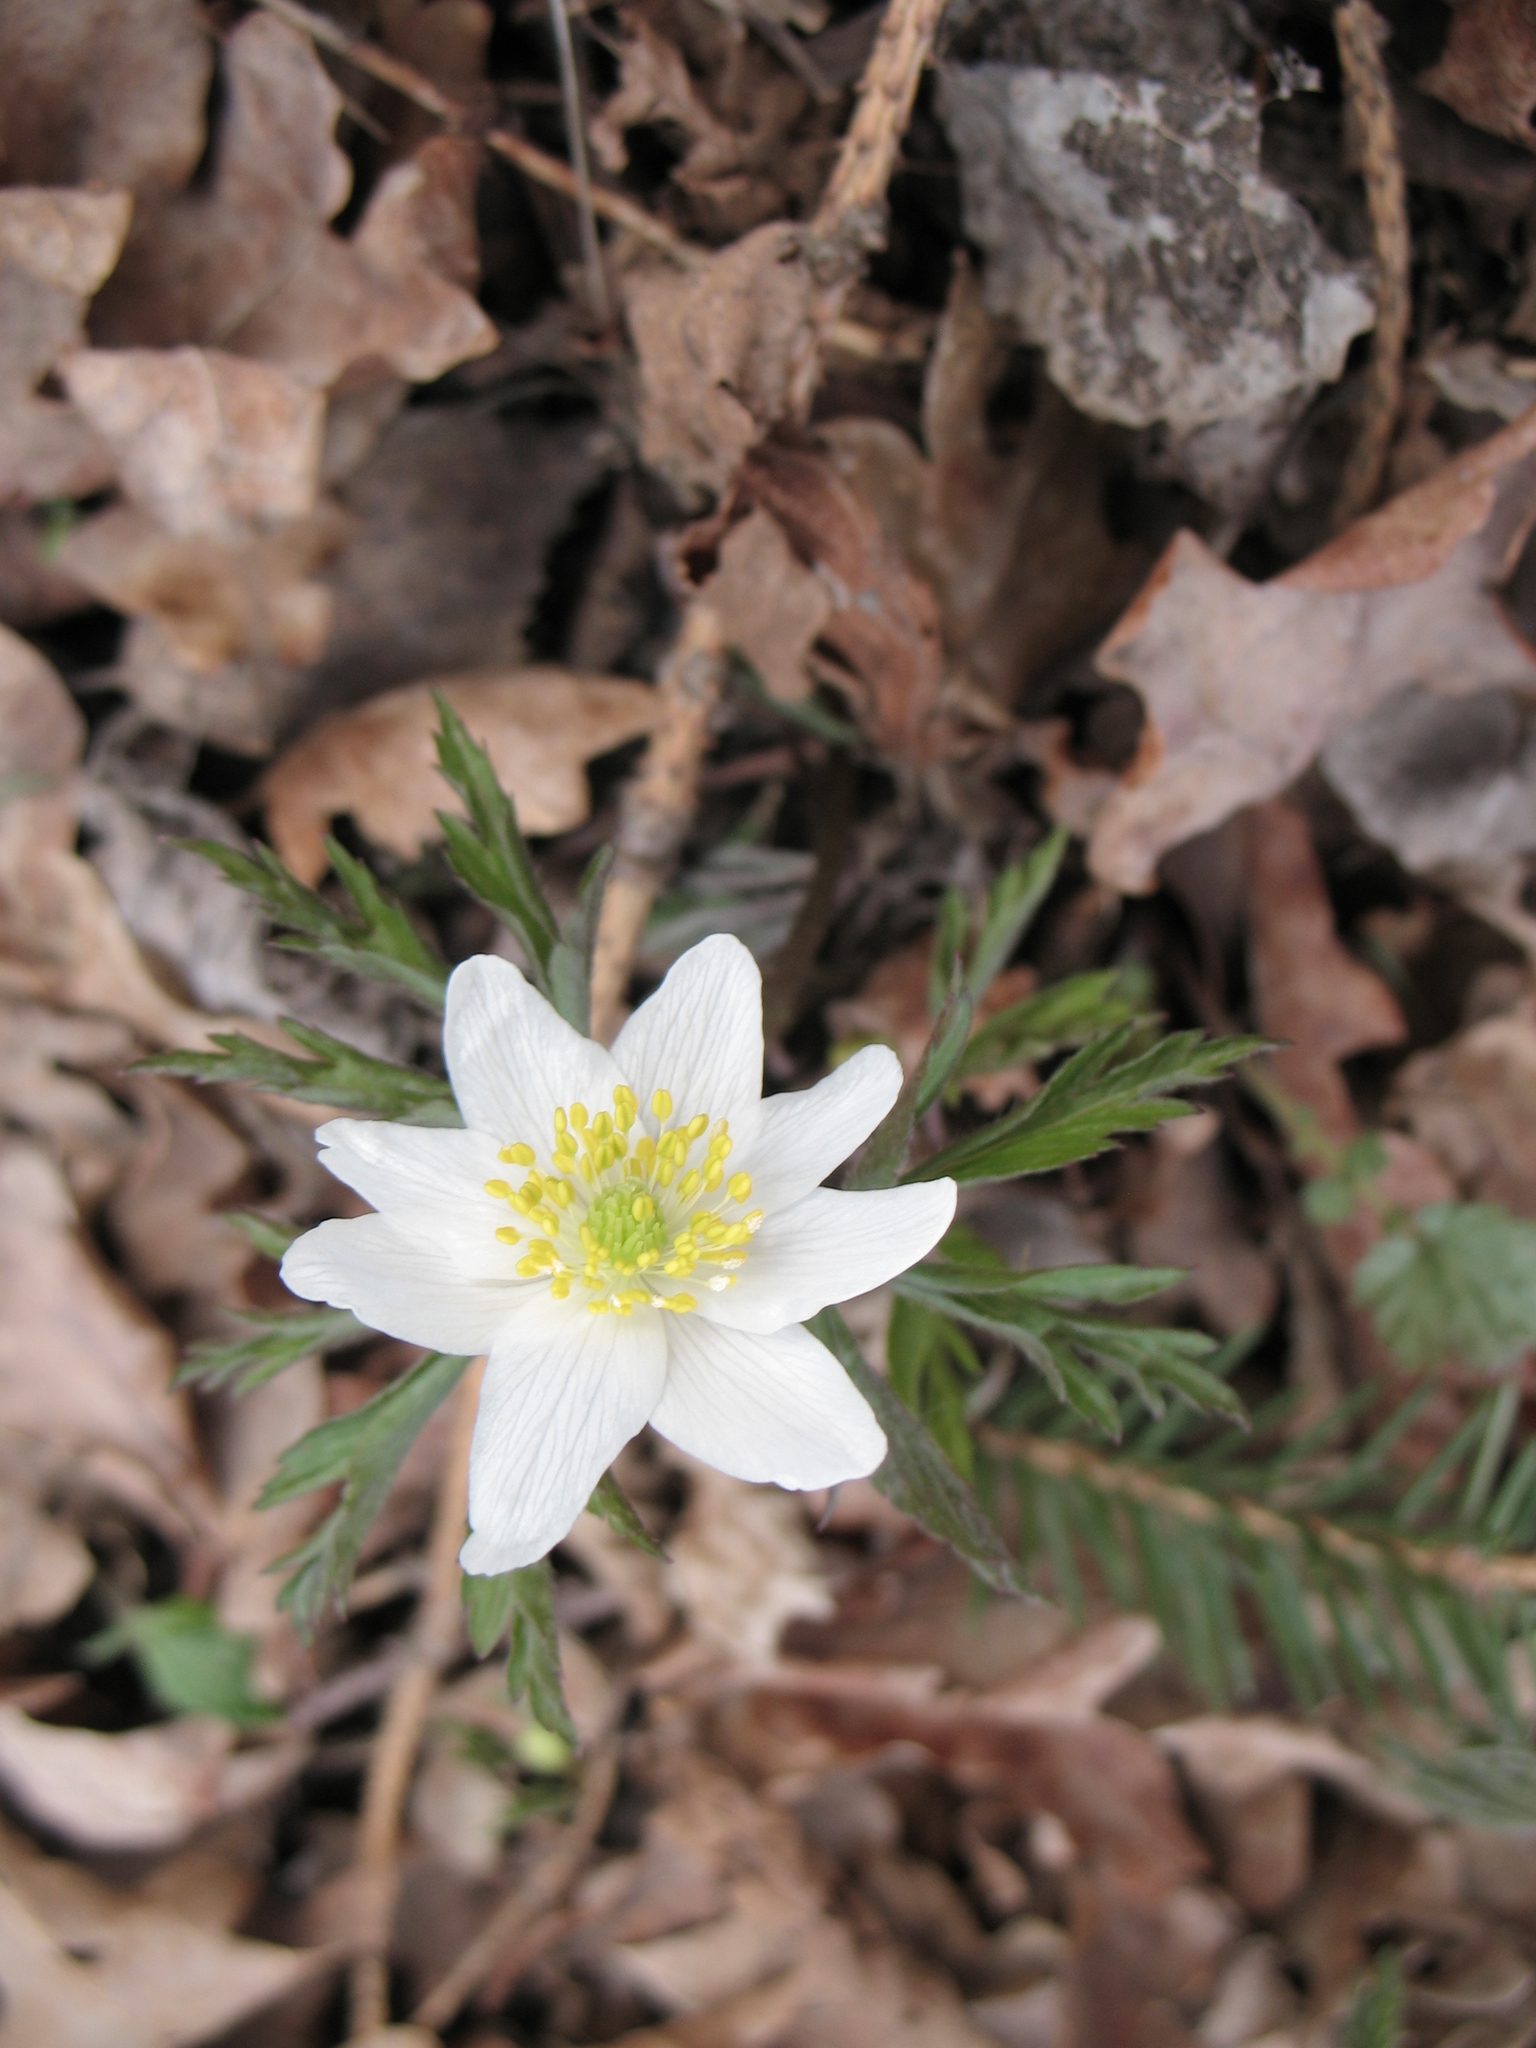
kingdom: Plantae
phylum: Tracheophyta
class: Magnoliopsida
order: Ranunculales
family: Ranunculaceae
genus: Anemone
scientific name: Anemone nemorosa
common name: Wood anemone
